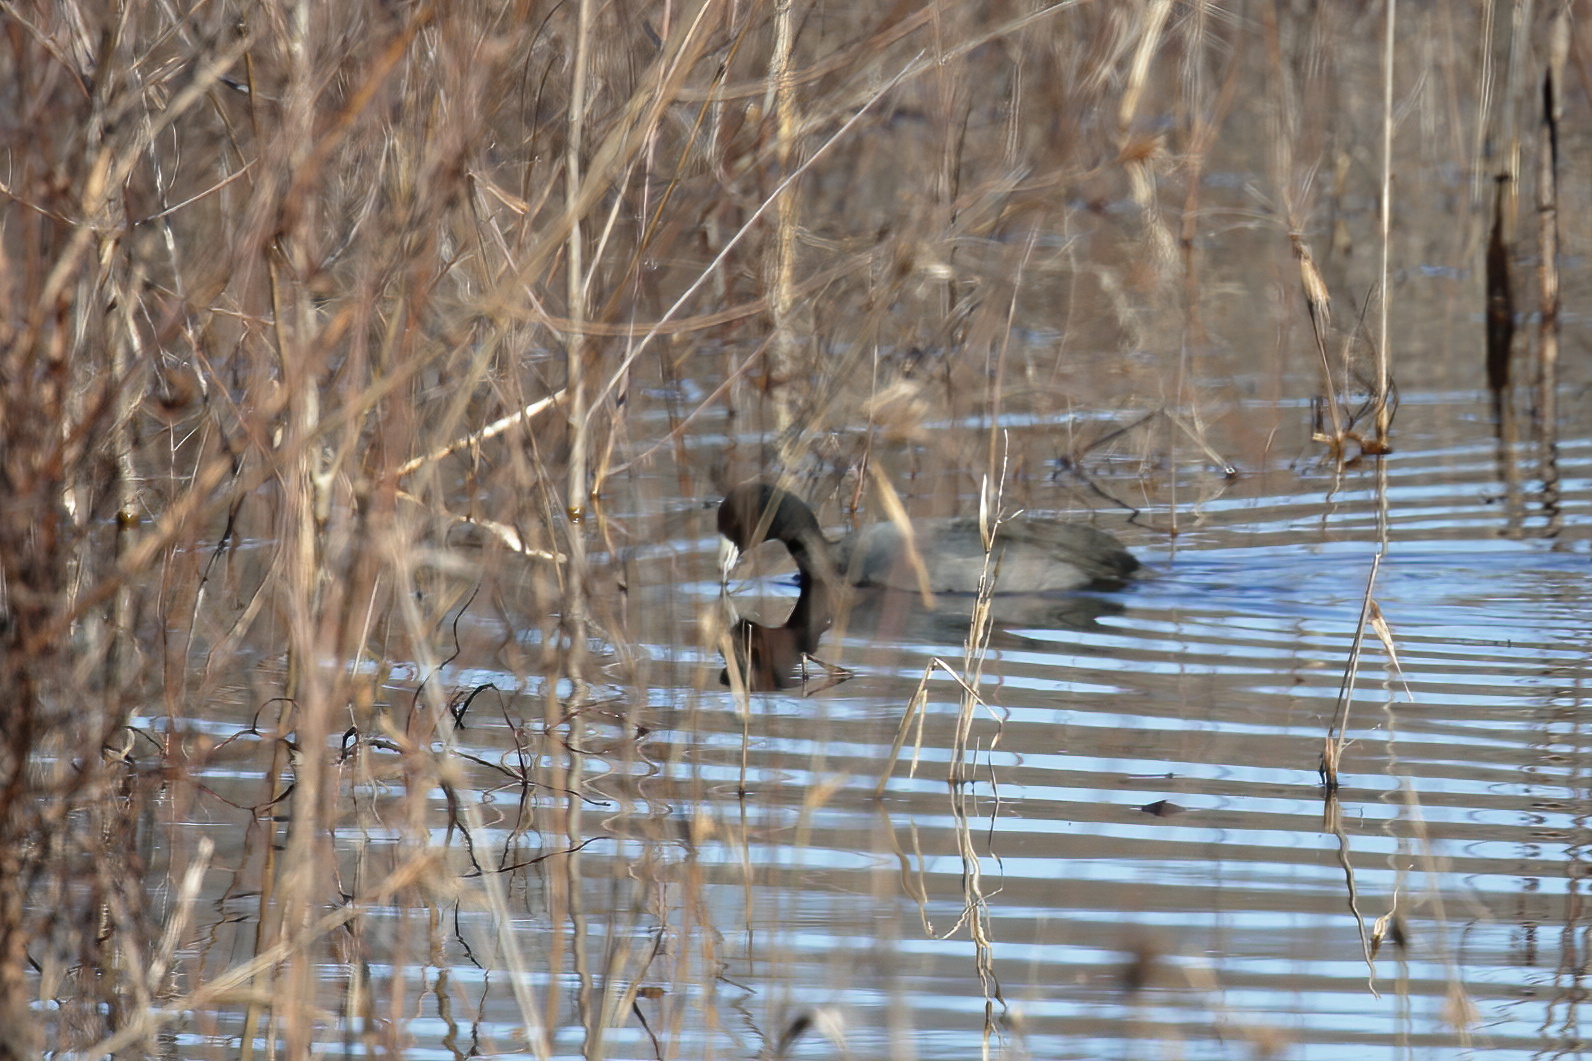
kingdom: Animalia
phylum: Chordata
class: Aves
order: Gruiformes
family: Rallidae
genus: Fulica
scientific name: Fulica americana
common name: American coot
